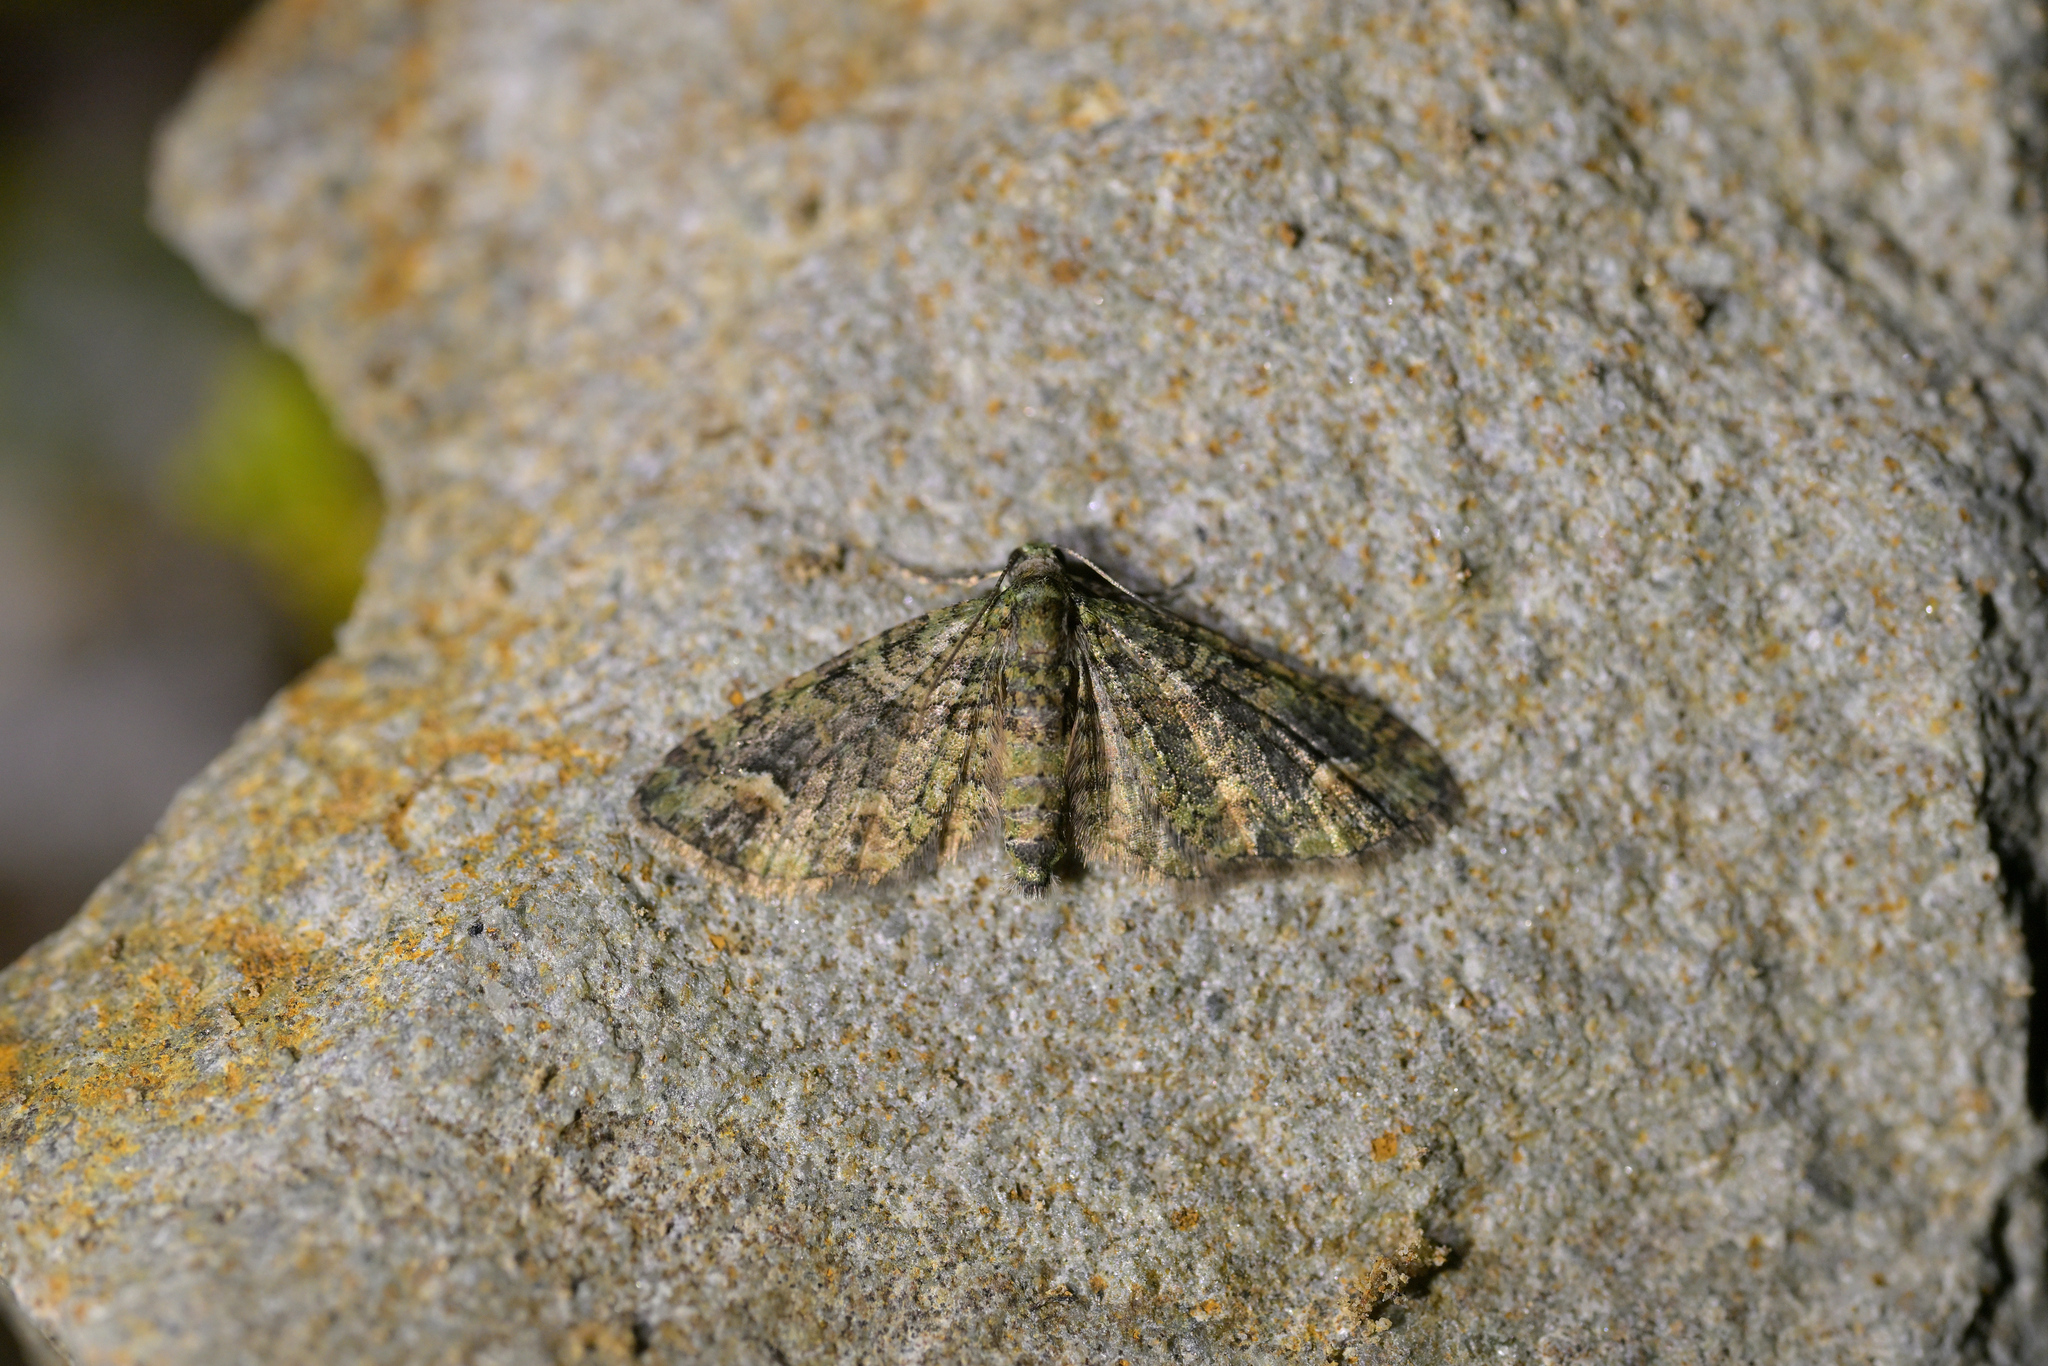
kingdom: Animalia
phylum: Arthropoda
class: Insecta
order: Lepidoptera
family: Geometridae
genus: Idaea
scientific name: Idaea mutanda
